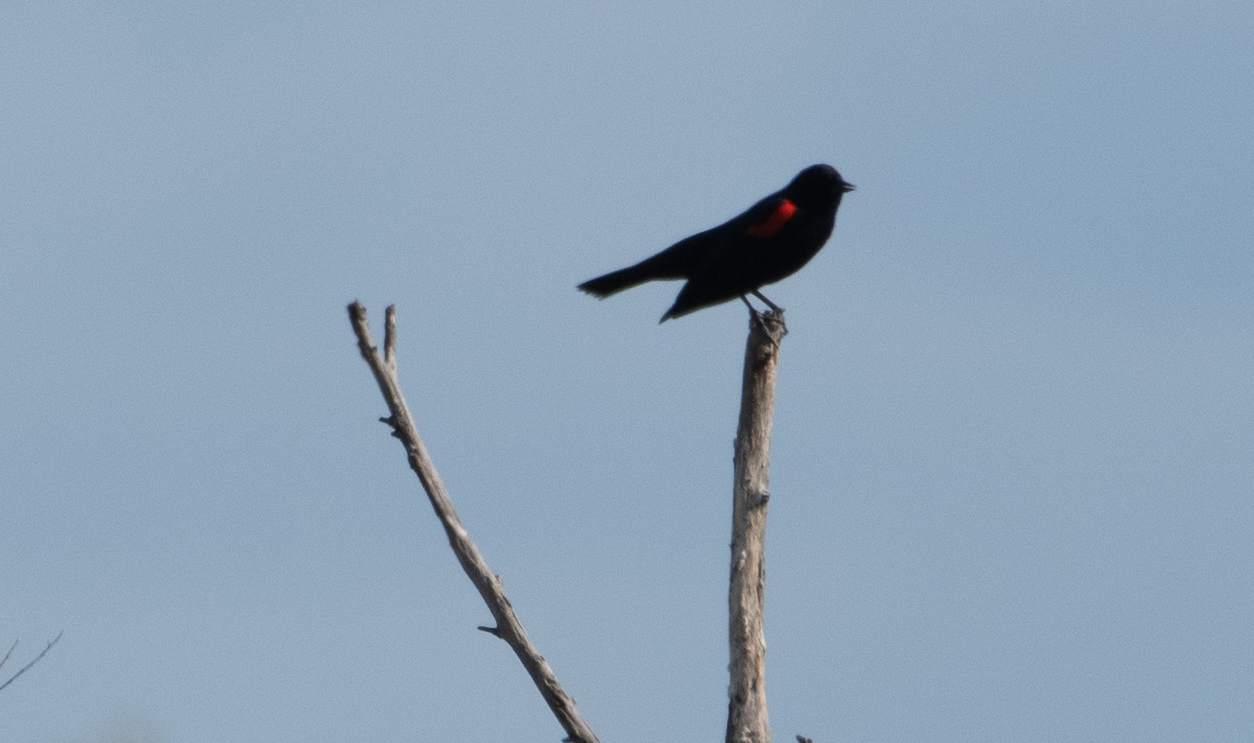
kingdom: Animalia
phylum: Chordata
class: Aves
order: Passeriformes
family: Icteridae
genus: Agelaius
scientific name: Agelaius phoeniceus
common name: Red-winged blackbird
